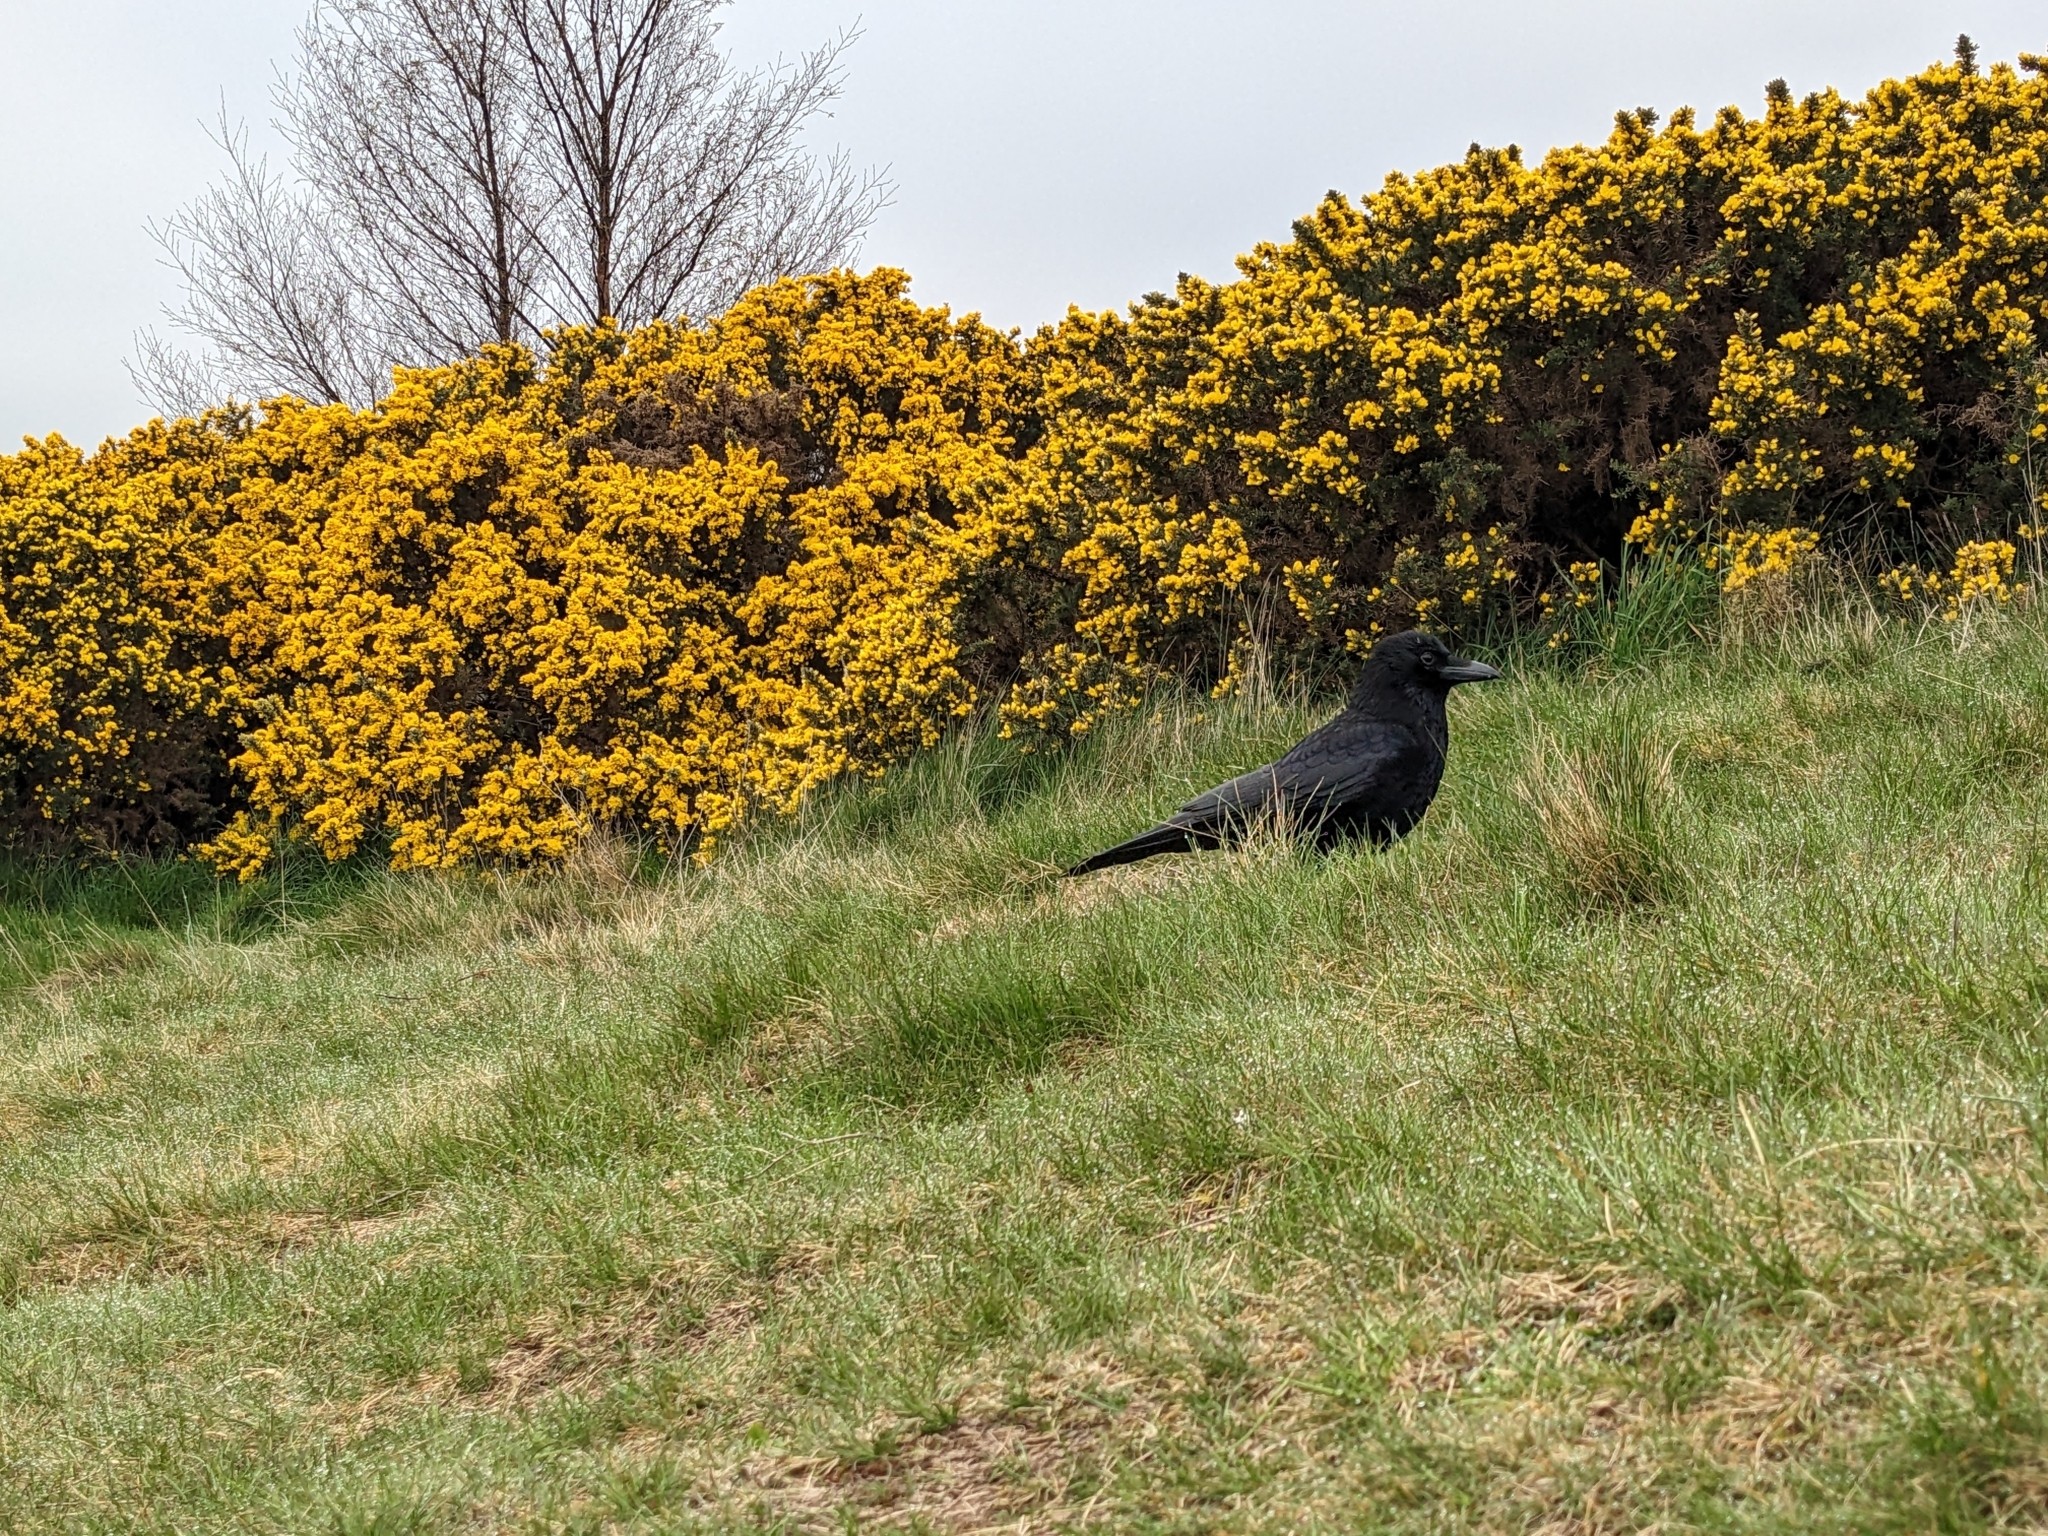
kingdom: Animalia
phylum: Chordata
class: Aves
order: Passeriformes
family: Corvidae
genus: Corvus
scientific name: Corvus corone
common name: Carrion crow
